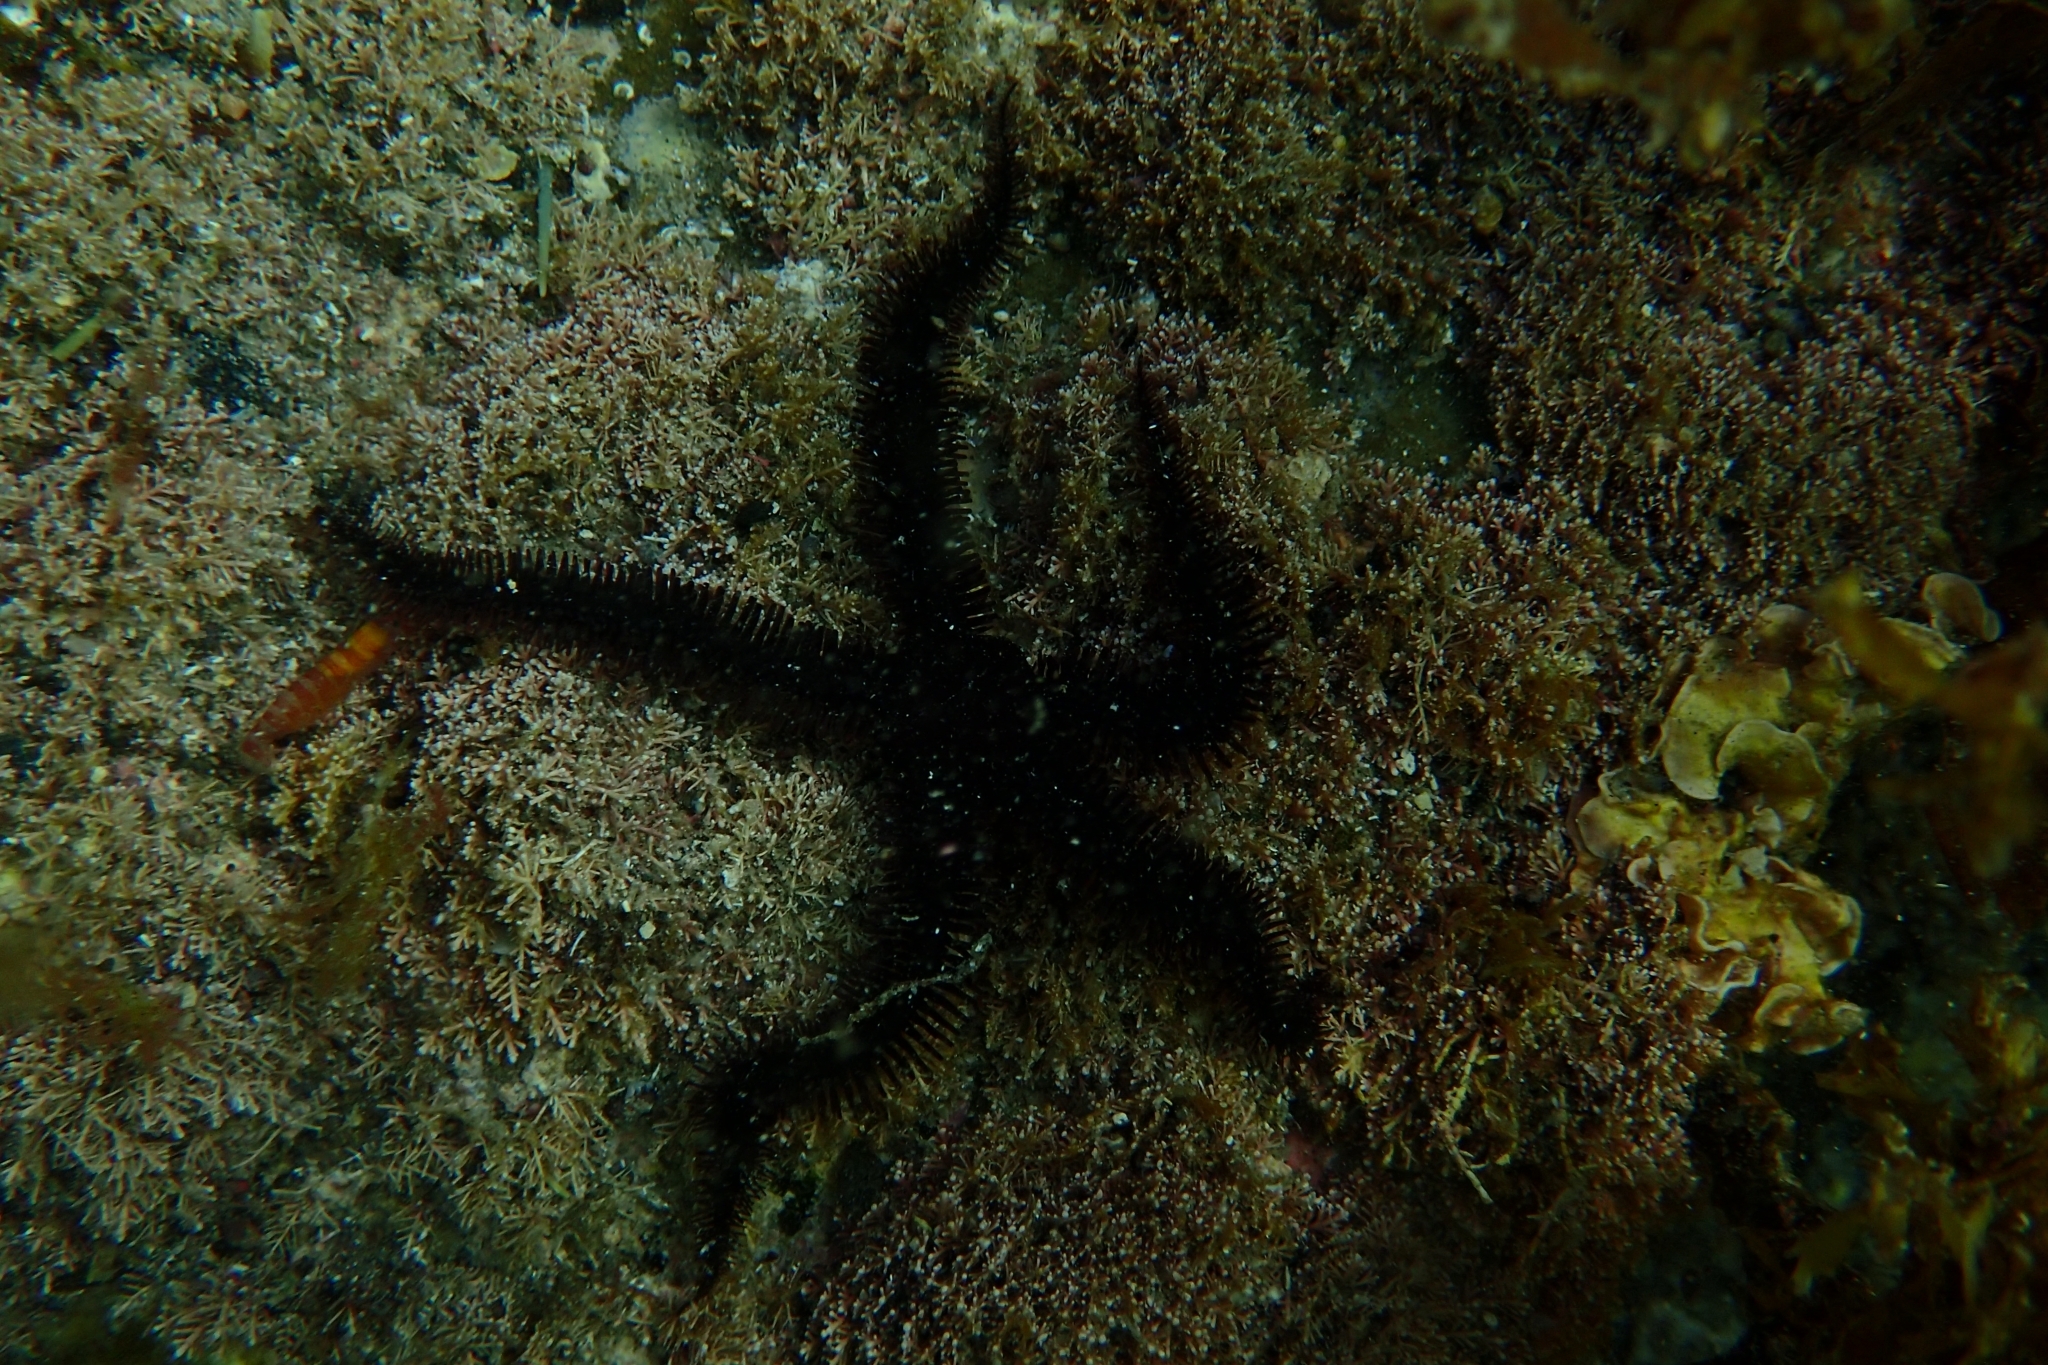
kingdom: Animalia
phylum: Echinodermata
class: Ophiuroidea
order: Ophiacanthida
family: Ophiopteridae
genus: Ophiopteris
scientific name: Ophiopteris antipodum
